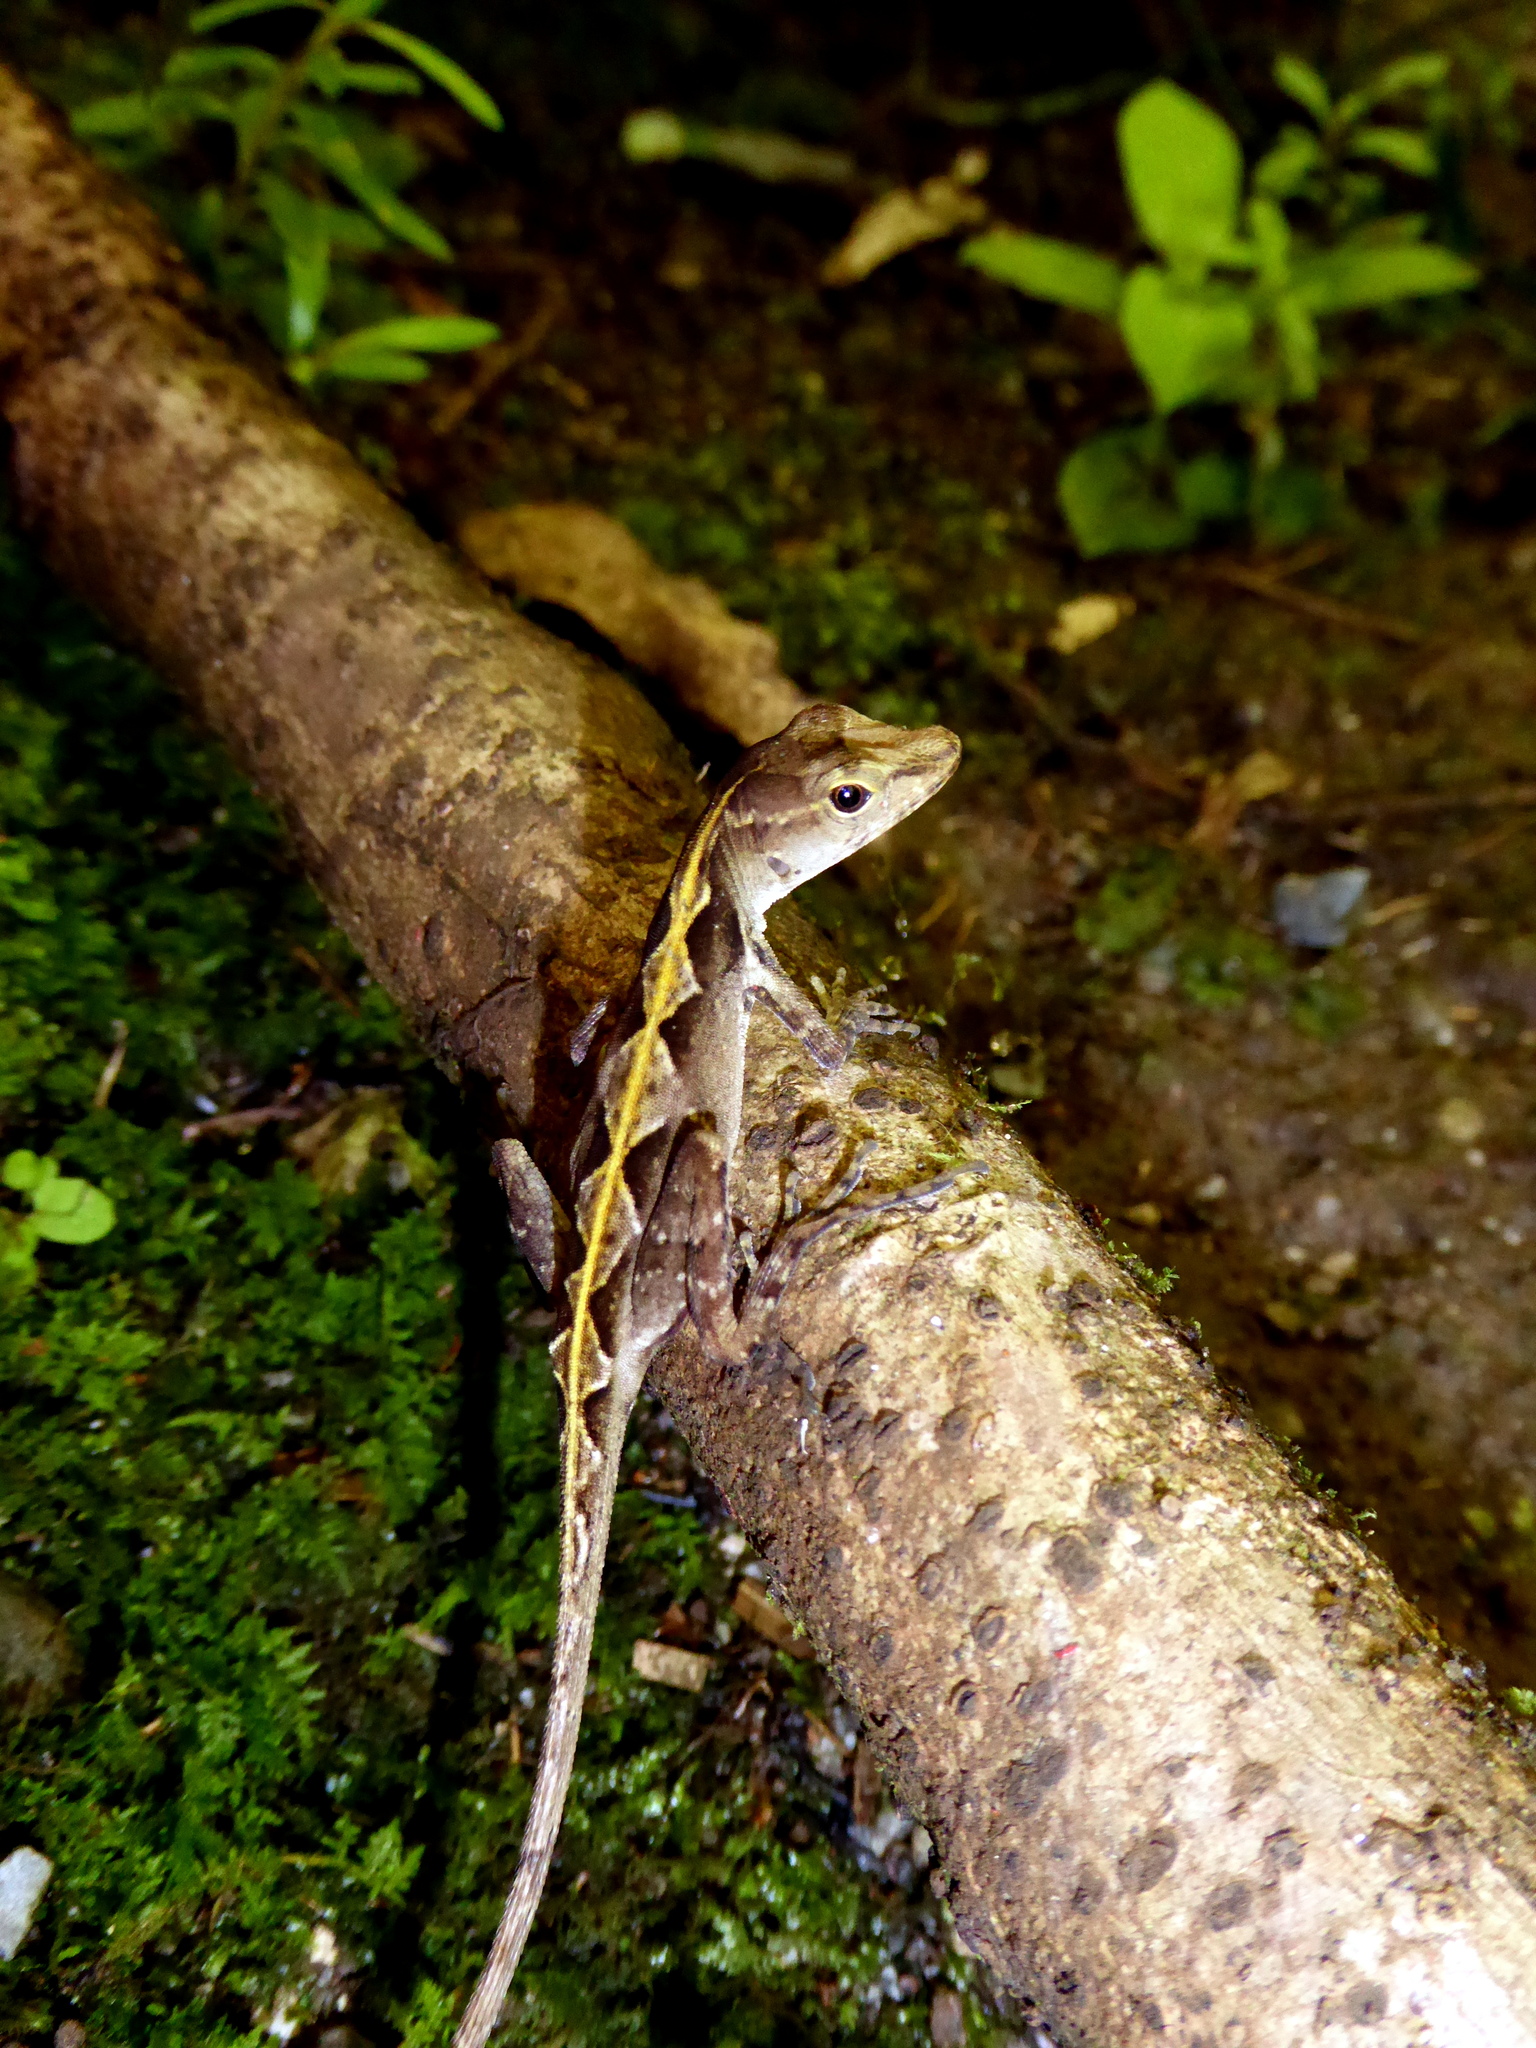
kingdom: Animalia
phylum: Chordata
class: Squamata
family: Dactyloidae
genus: Anolis
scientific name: Anolis cobanensis
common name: Coban anole
